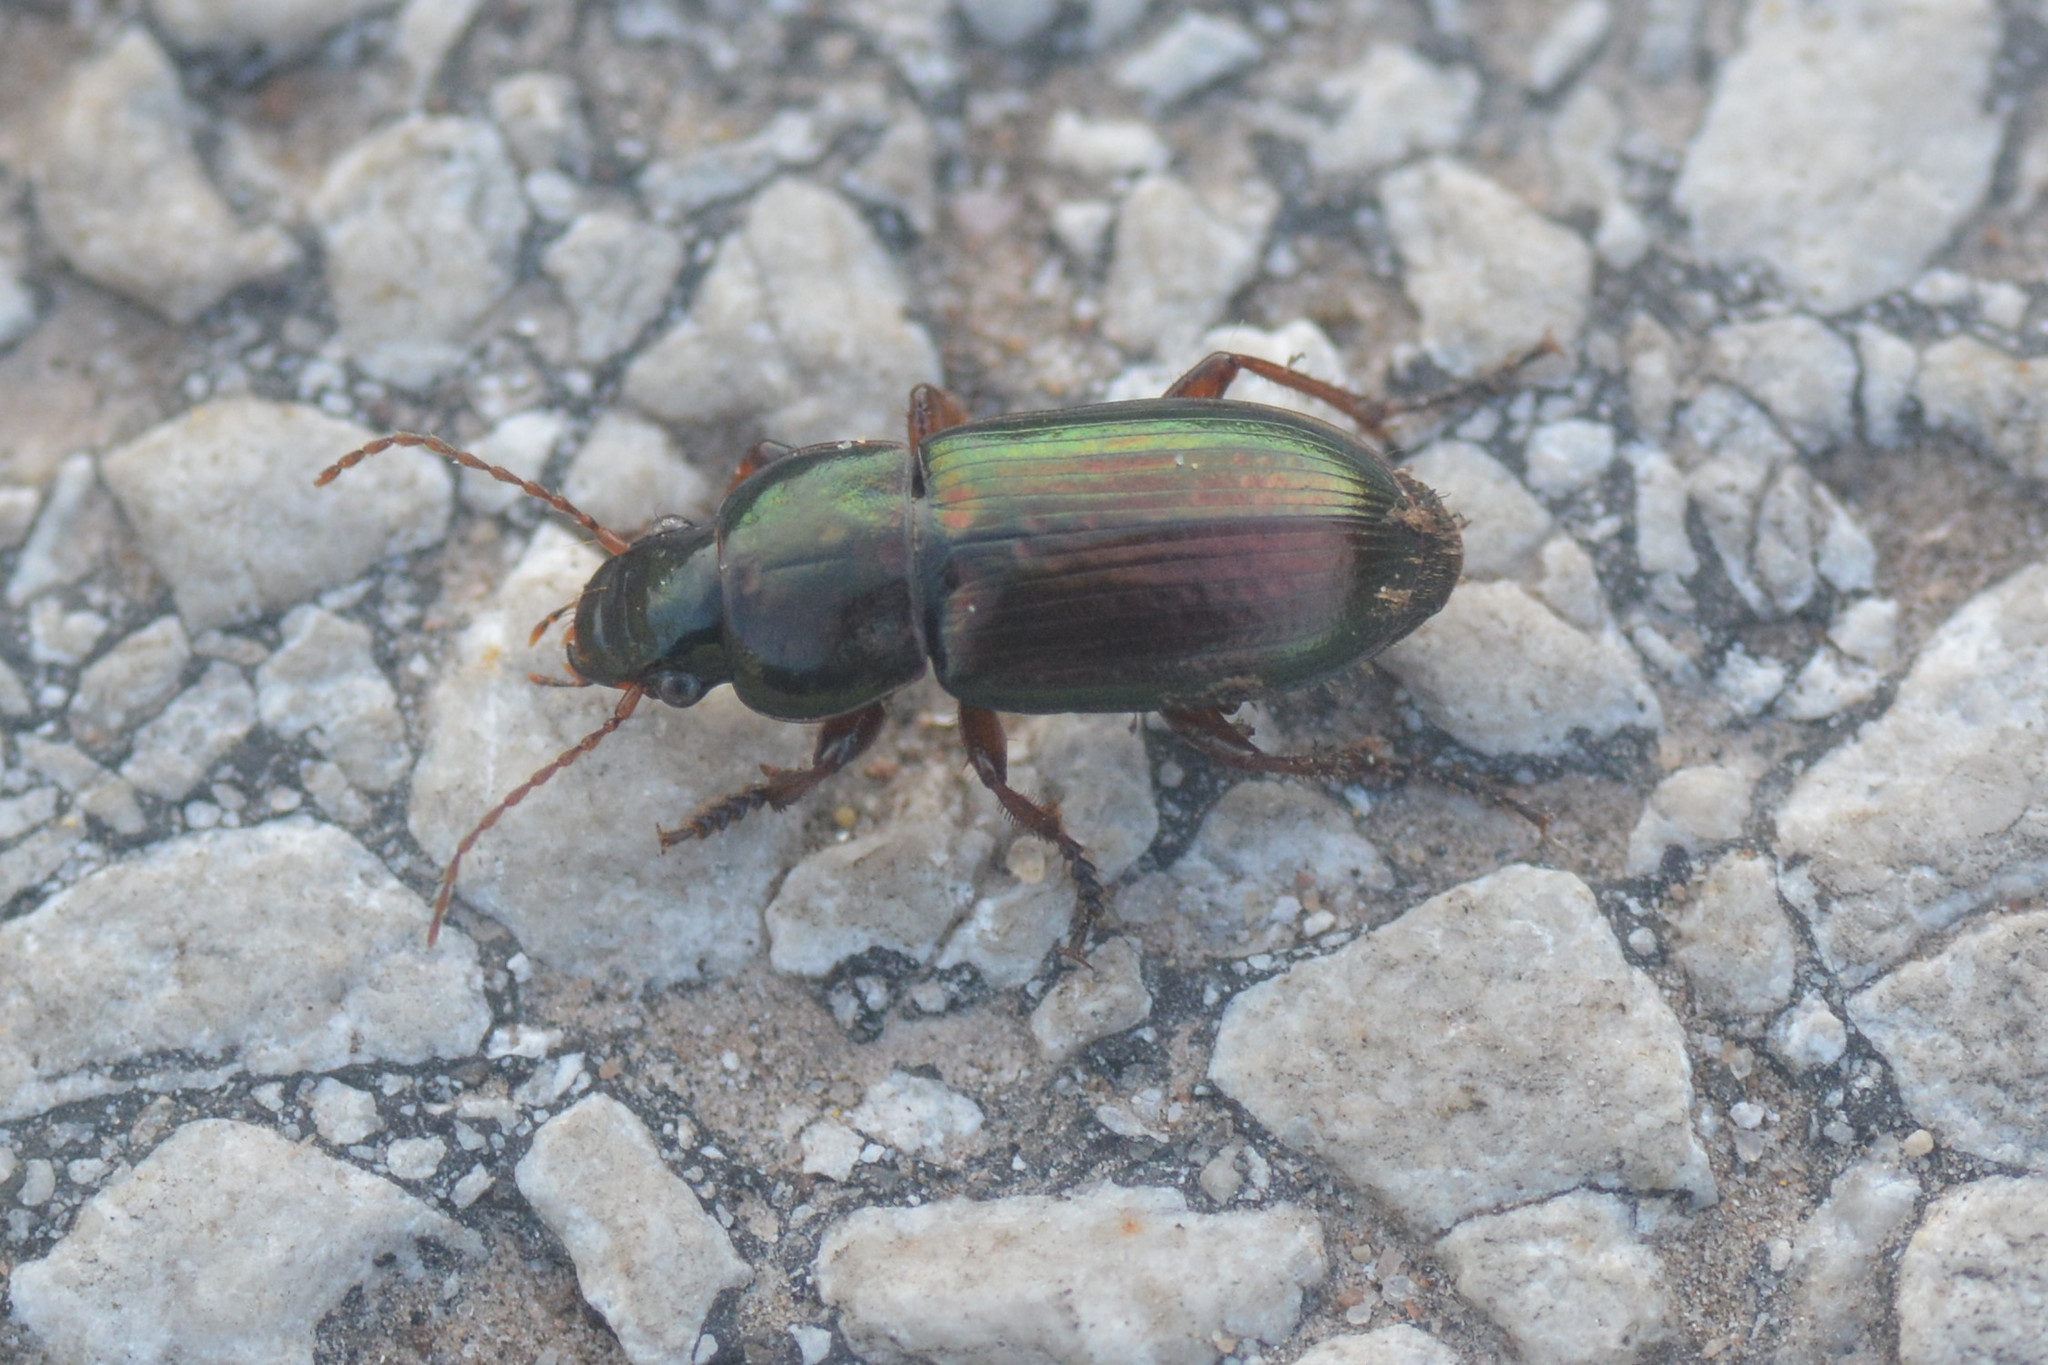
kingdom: Animalia
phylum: Arthropoda
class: Insecta
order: Coleoptera
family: Carabidae
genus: Harpalus
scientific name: Harpalus affinis
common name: Polychrome harp ground beetle
